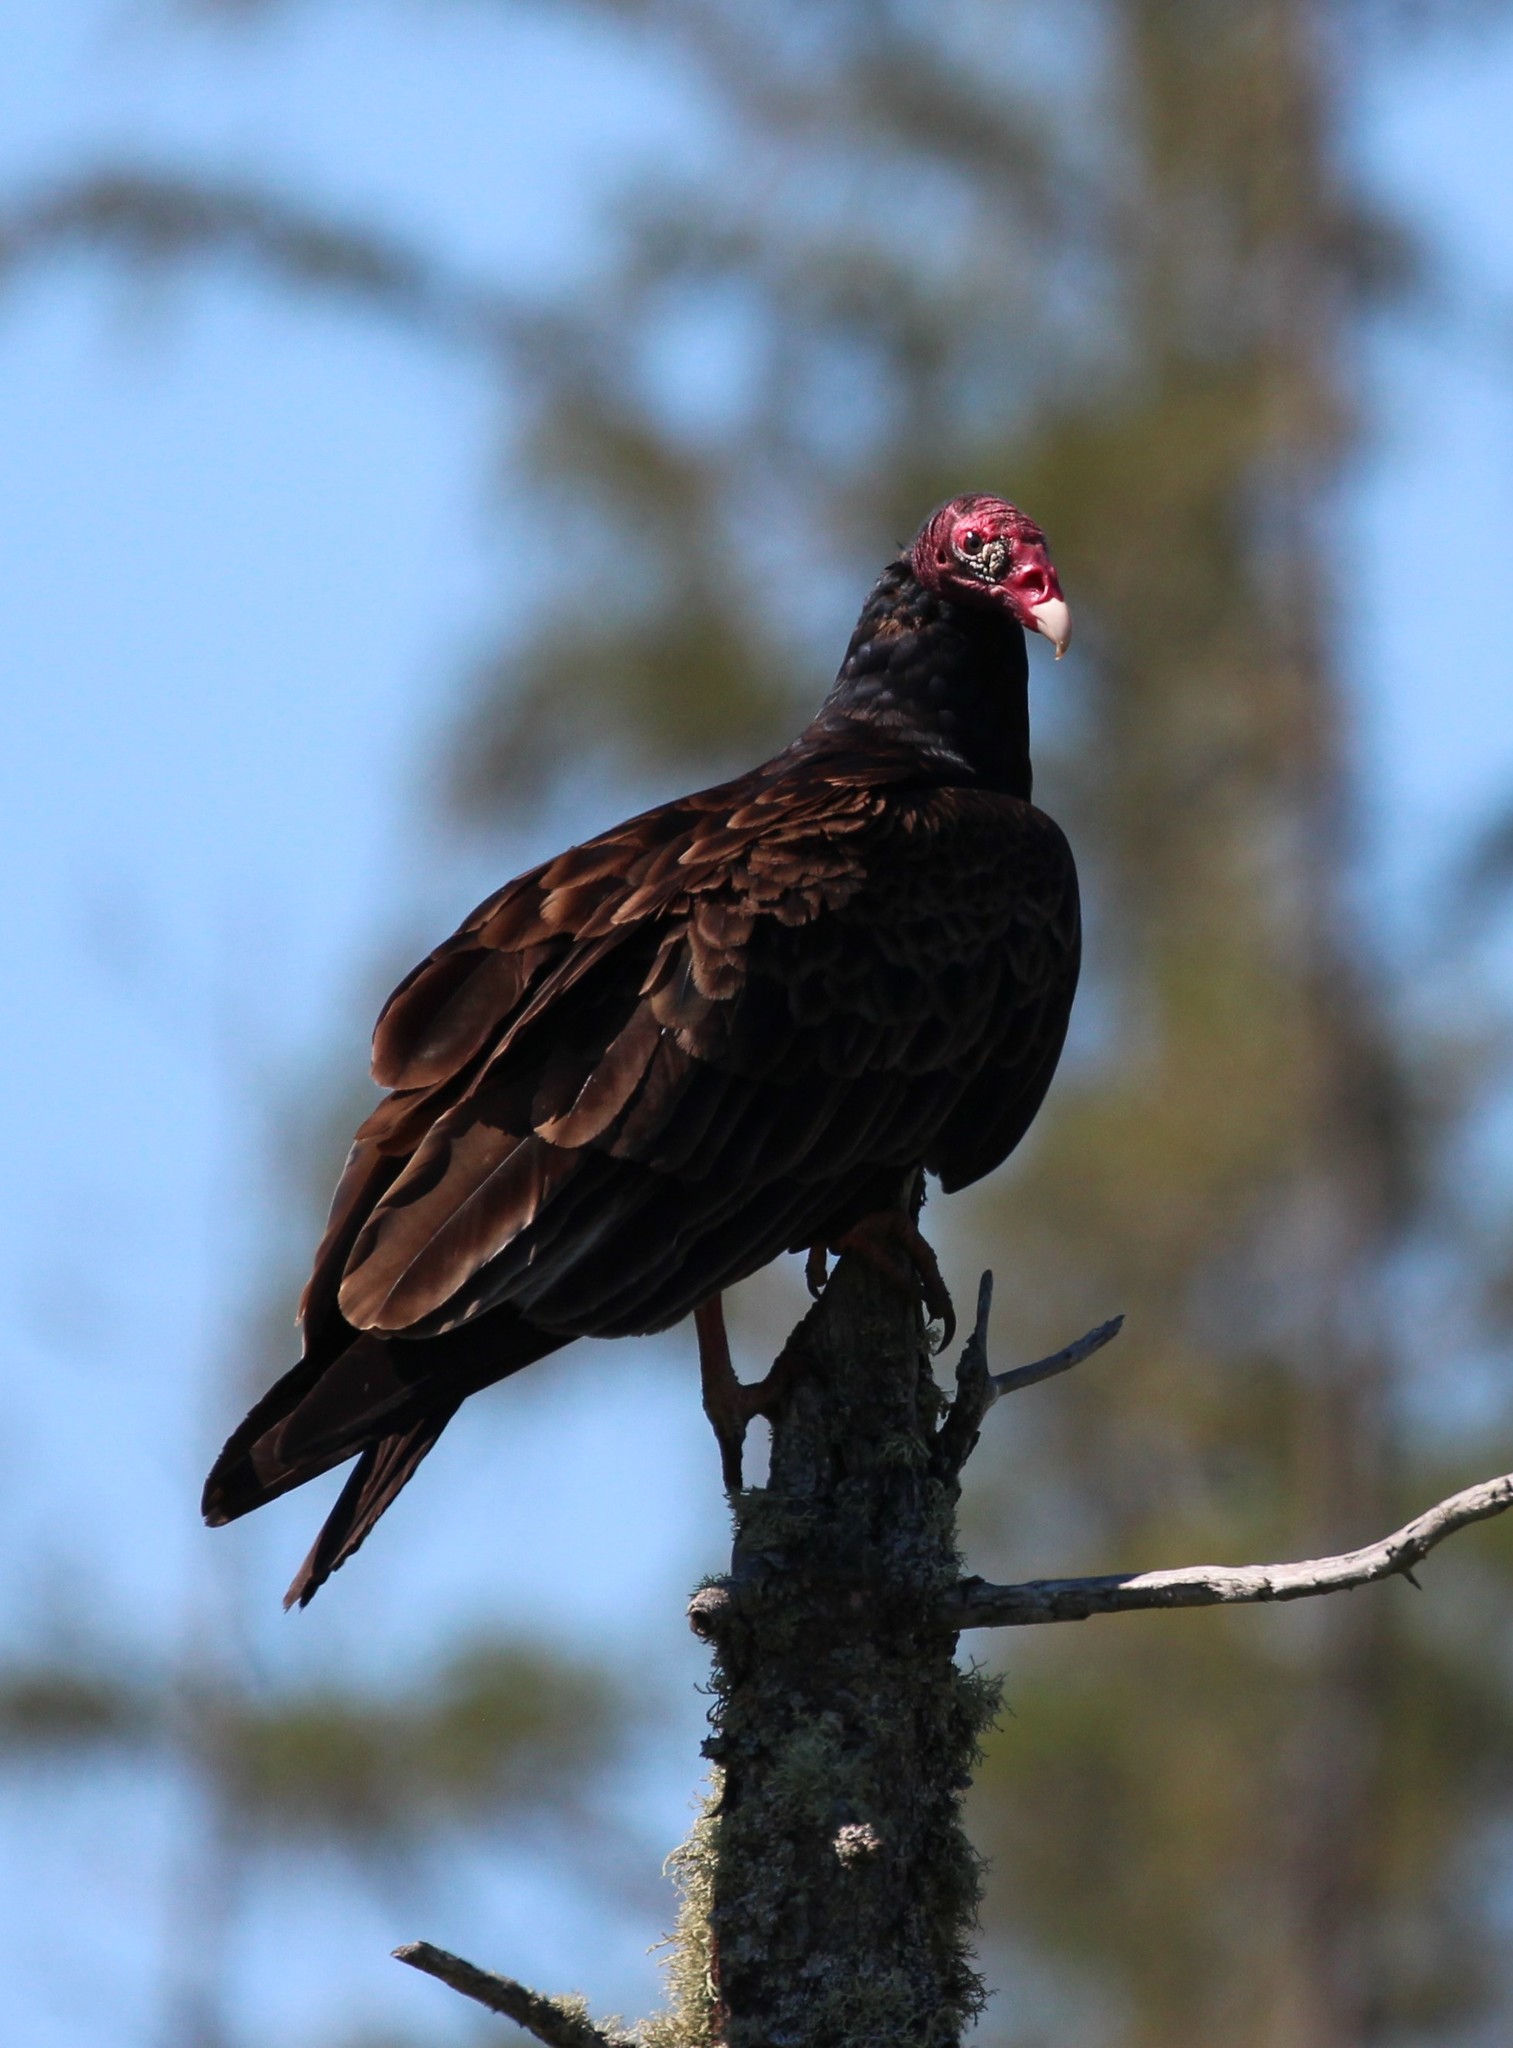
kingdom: Animalia
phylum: Chordata
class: Aves
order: Accipitriformes
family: Cathartidae
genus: Cathartes
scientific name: Cathartes aura
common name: Turkey vulture
